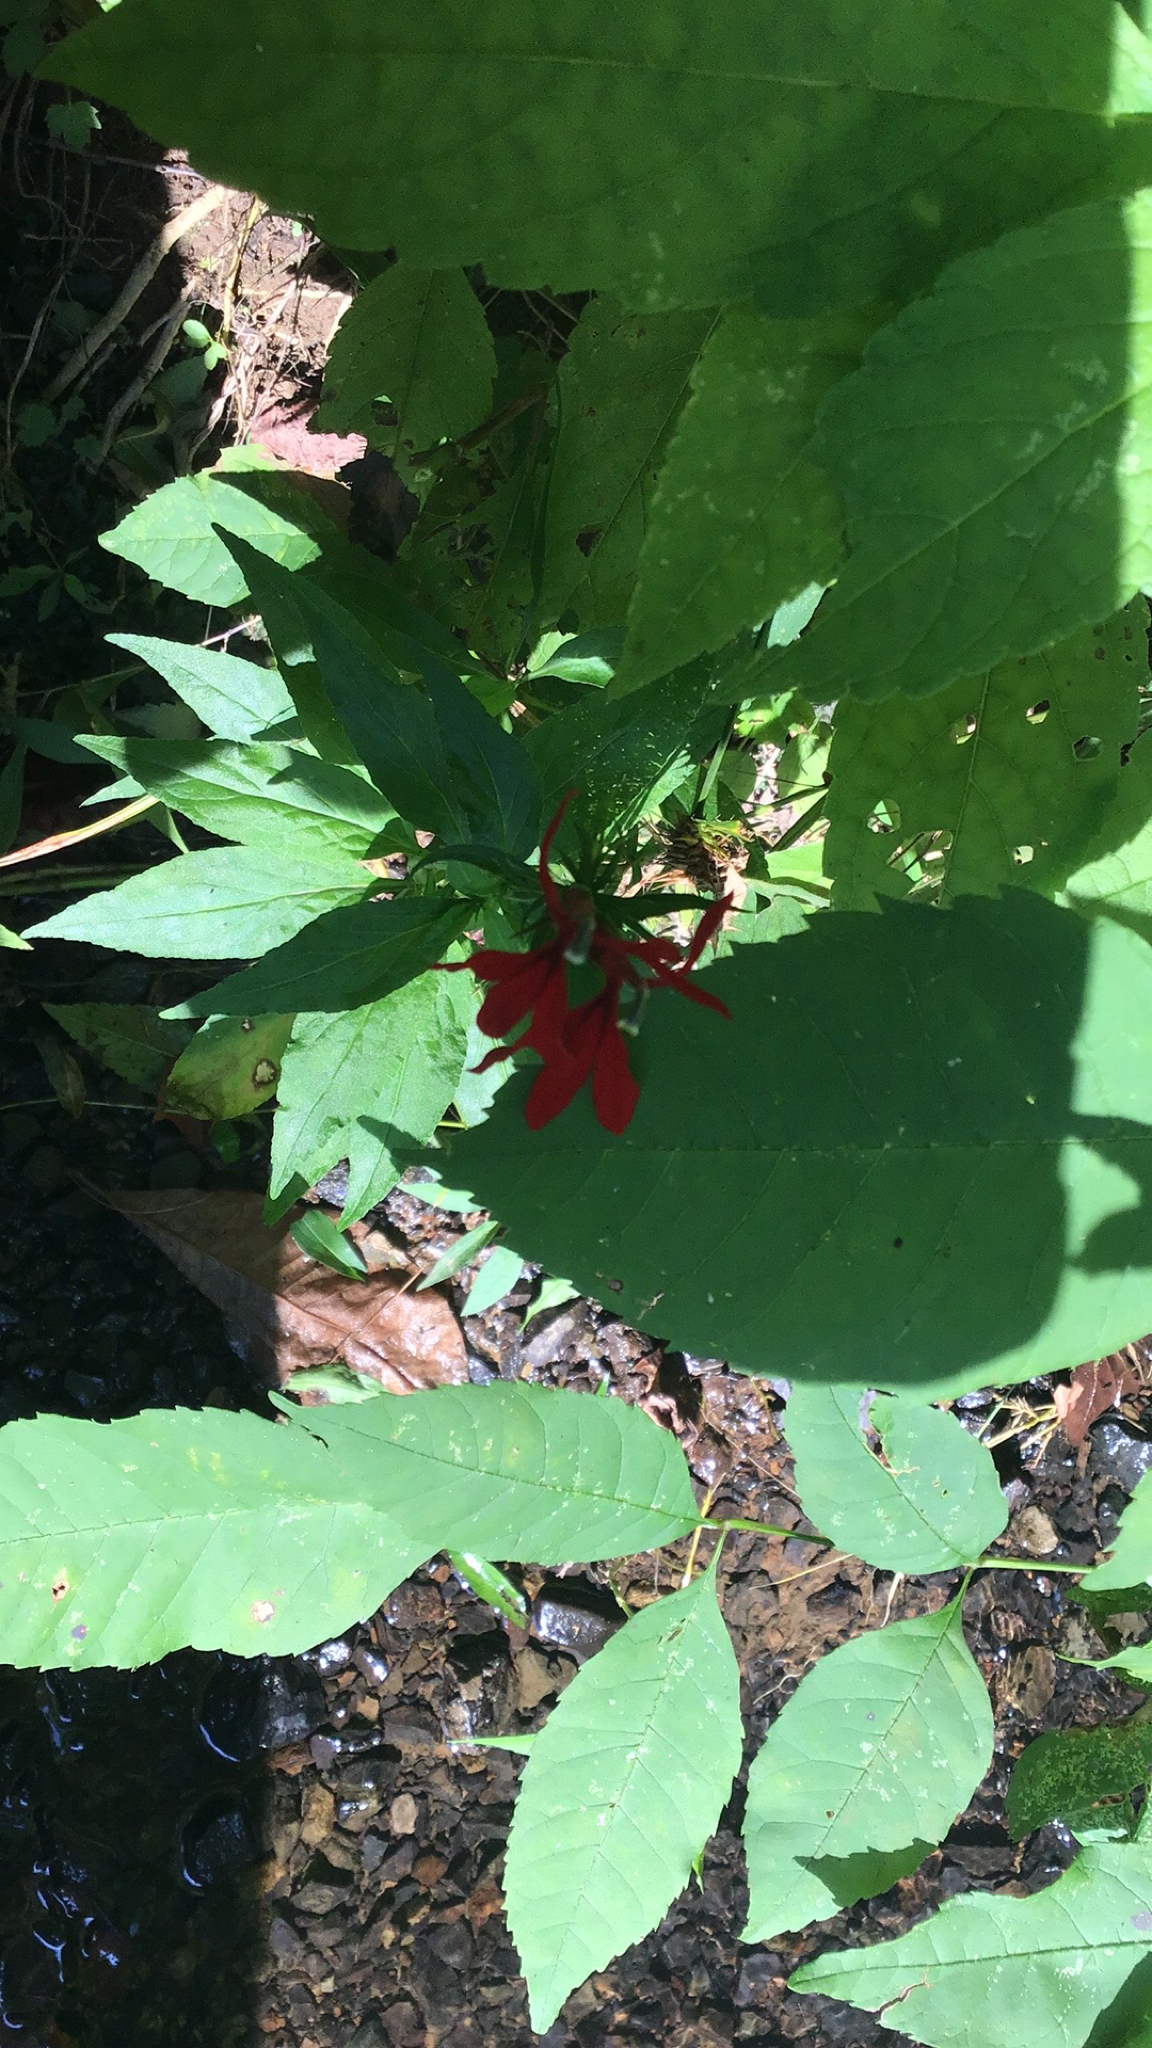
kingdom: Plantae
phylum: Tracheophyta
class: Magnoliopsida
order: Asterales
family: Campanulaceae
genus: Lobelia
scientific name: Lobelia cardinalis
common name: Cardinal flower
